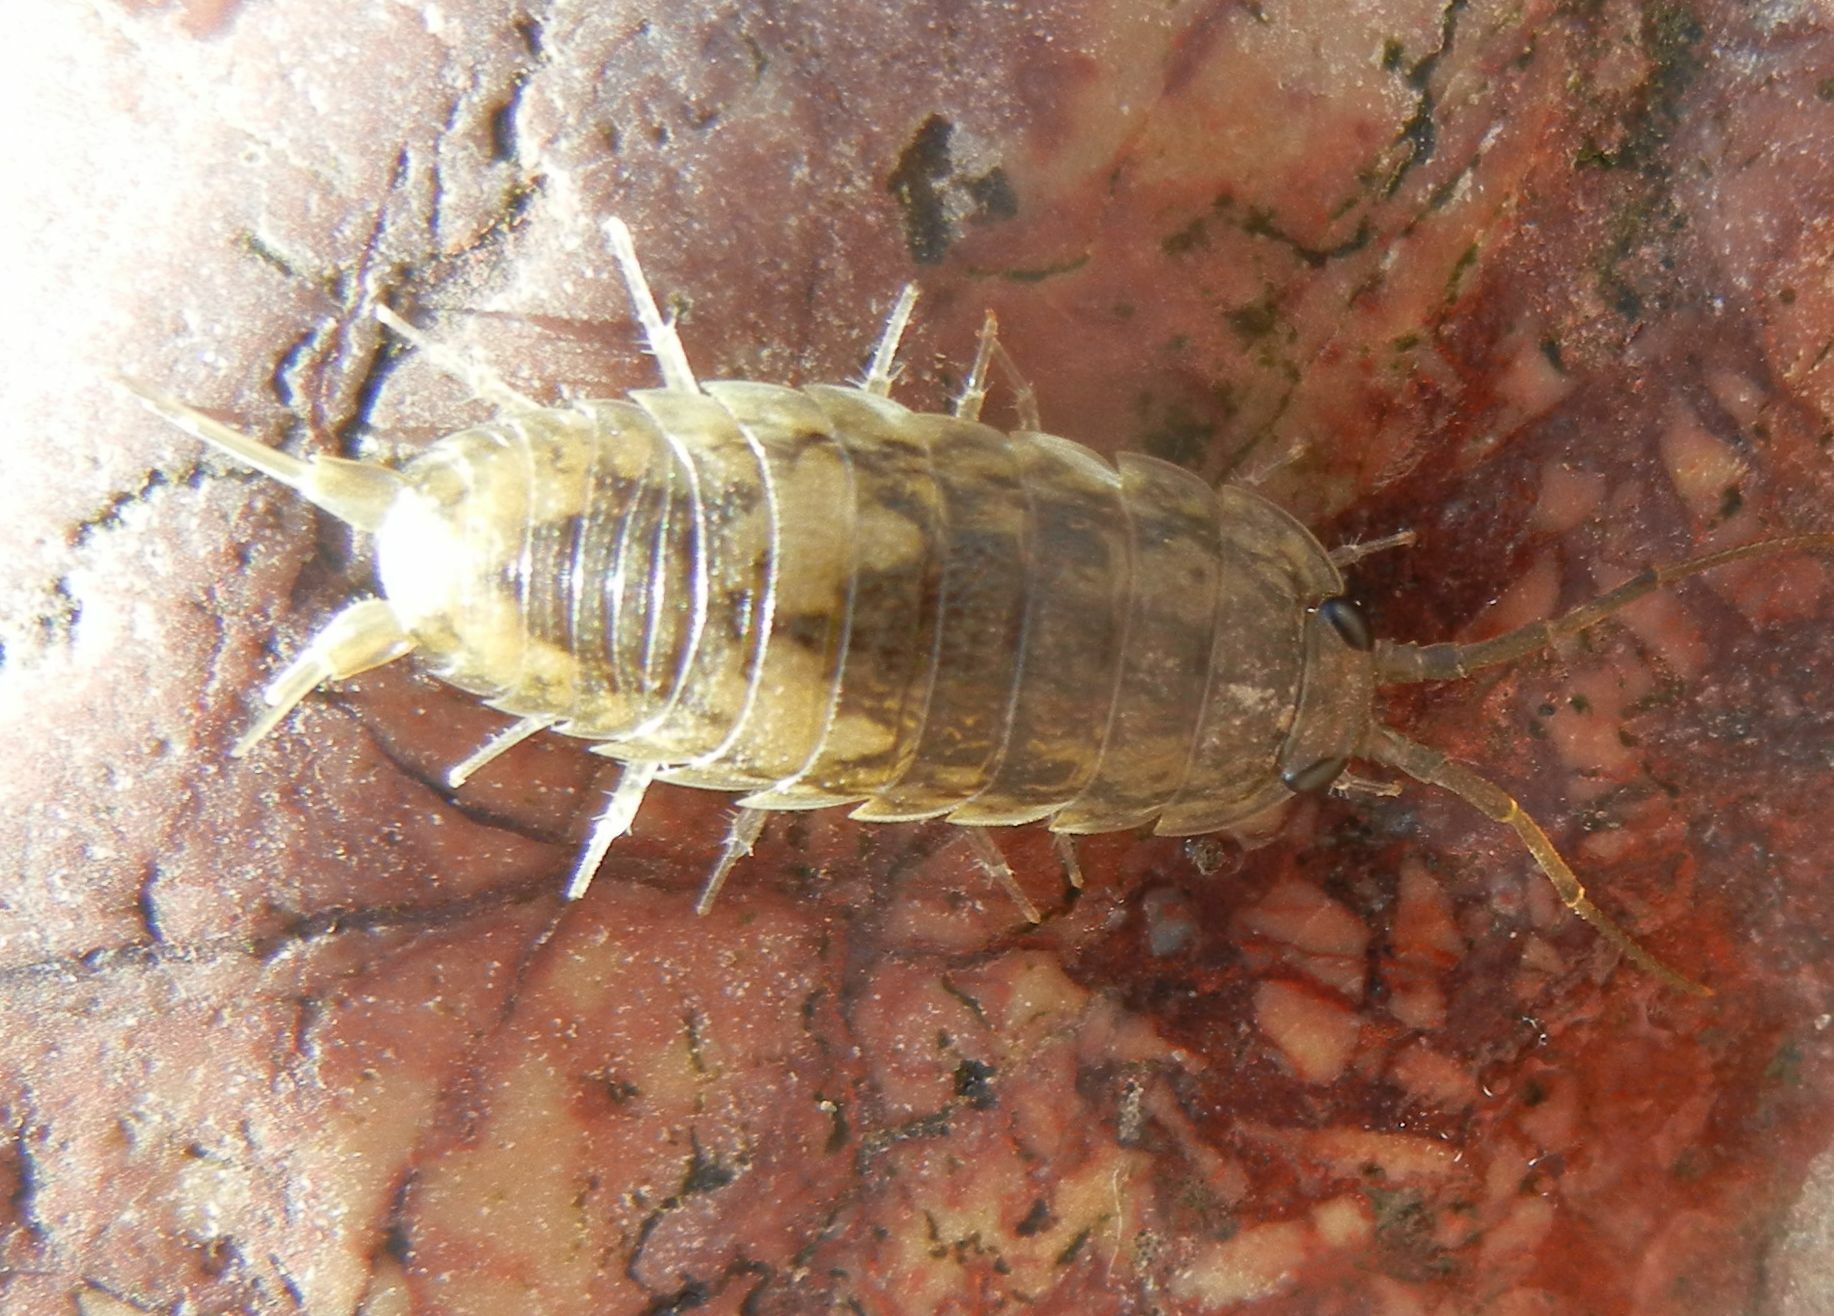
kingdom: Animalia
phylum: Arthropoda
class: Malacostraca
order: Isopoda
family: Ligiidae
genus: Ligia
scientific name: Ligia oceanica
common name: Sea slater
